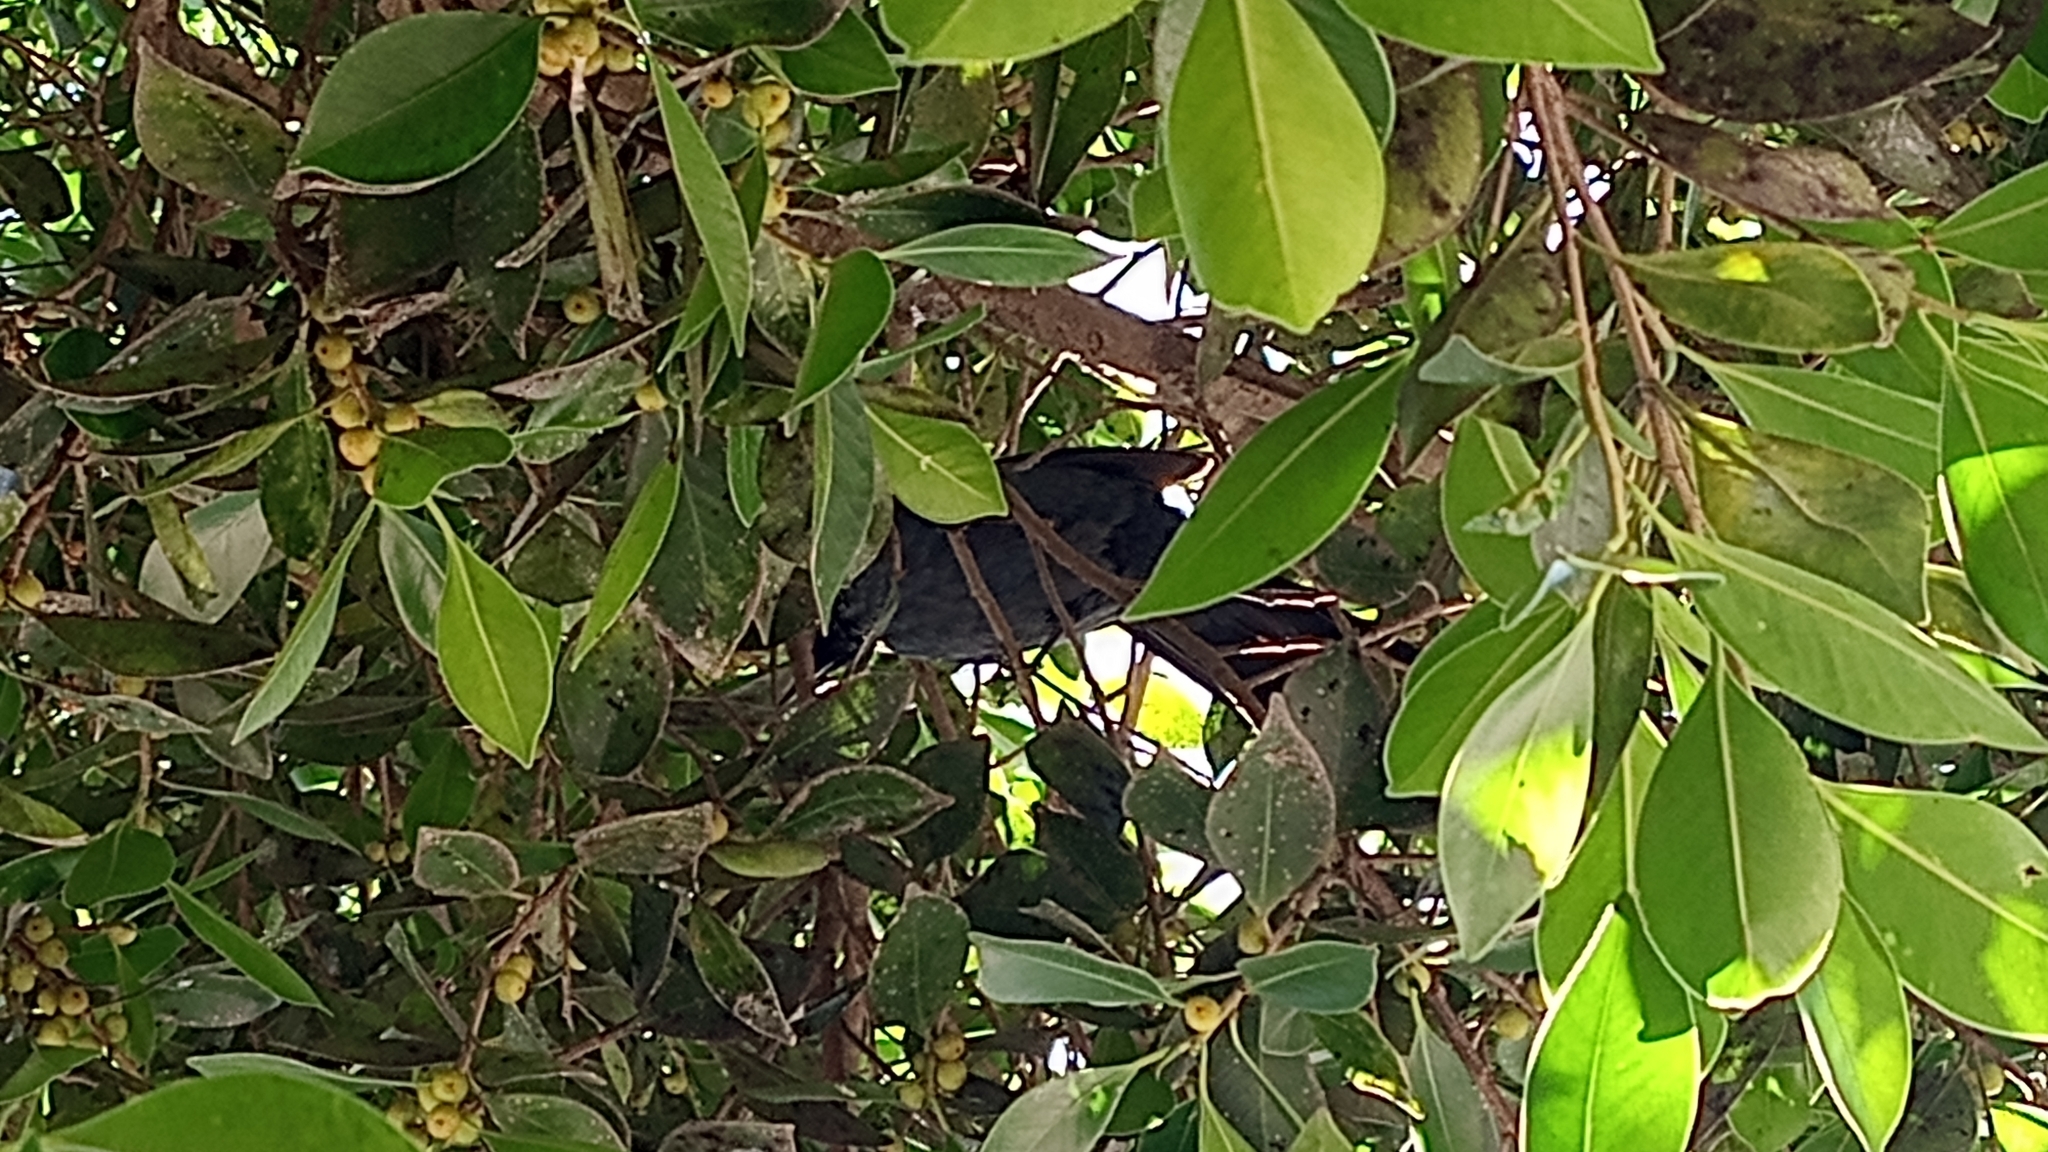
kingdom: Animalia
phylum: Chordata
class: Aves
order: Passeriformes
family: Mimidae
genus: Melanotis
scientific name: Melanotis caerulescens
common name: Blue mockingbird
